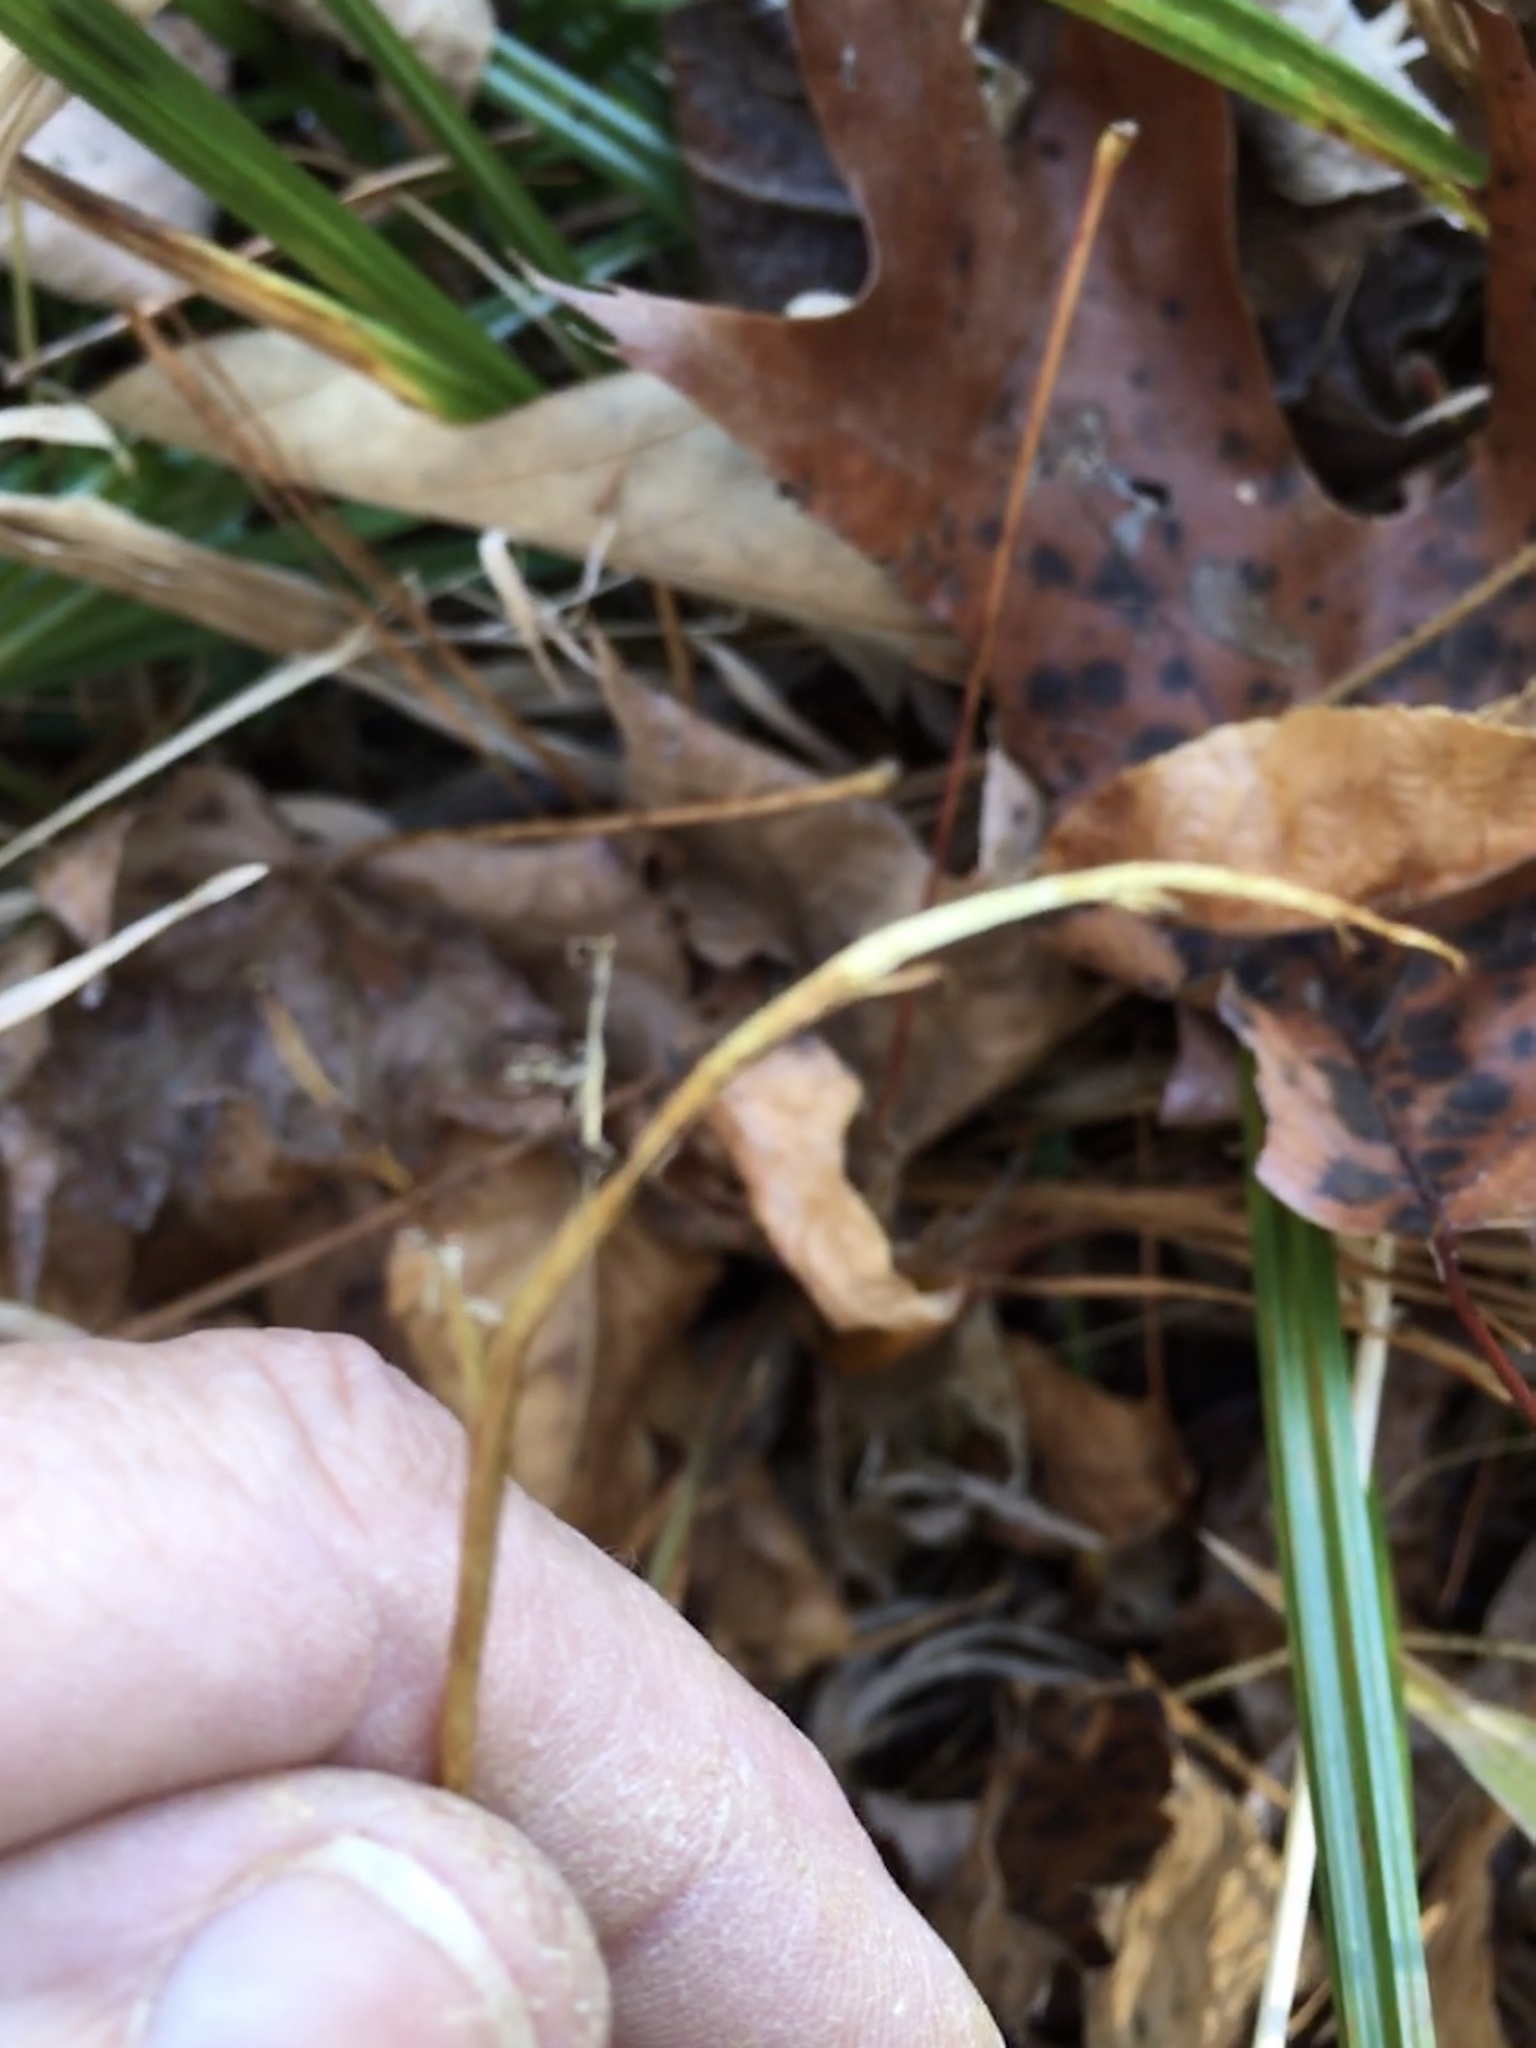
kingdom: Plantae
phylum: Tracheophyta
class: Polypodiopsida
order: Ophioglossales
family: Ophioglossaceae
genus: Sceptridium
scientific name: Sceptridium biternatum
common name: Sparse-lobed grapefern
